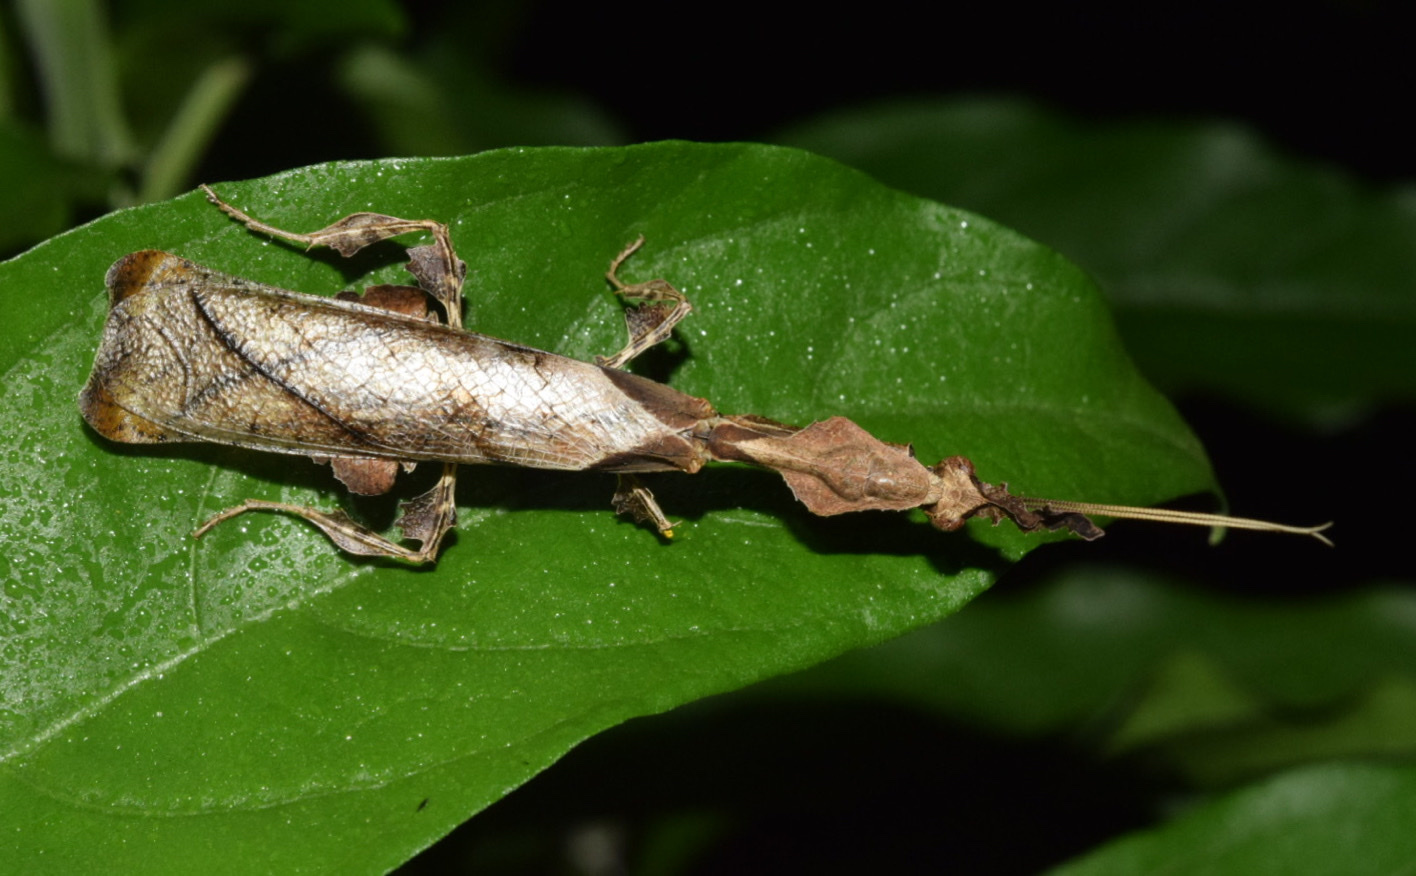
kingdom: Animalia
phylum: Arthropoda
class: Insecta
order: Mantodea
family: Hymenopodidae
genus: Phyllocrania
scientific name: Phyllocrania paradoxa
